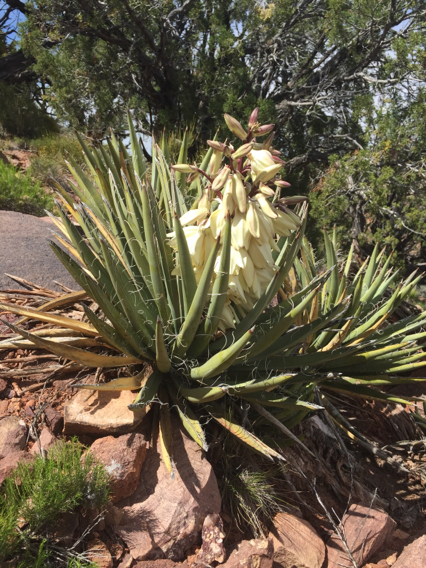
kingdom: Plantae
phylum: Tracheophyta
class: Liliopsida
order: Asparagales
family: Asparagaceae
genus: Yucca
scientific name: Yucca baccata
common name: Banana yucca
